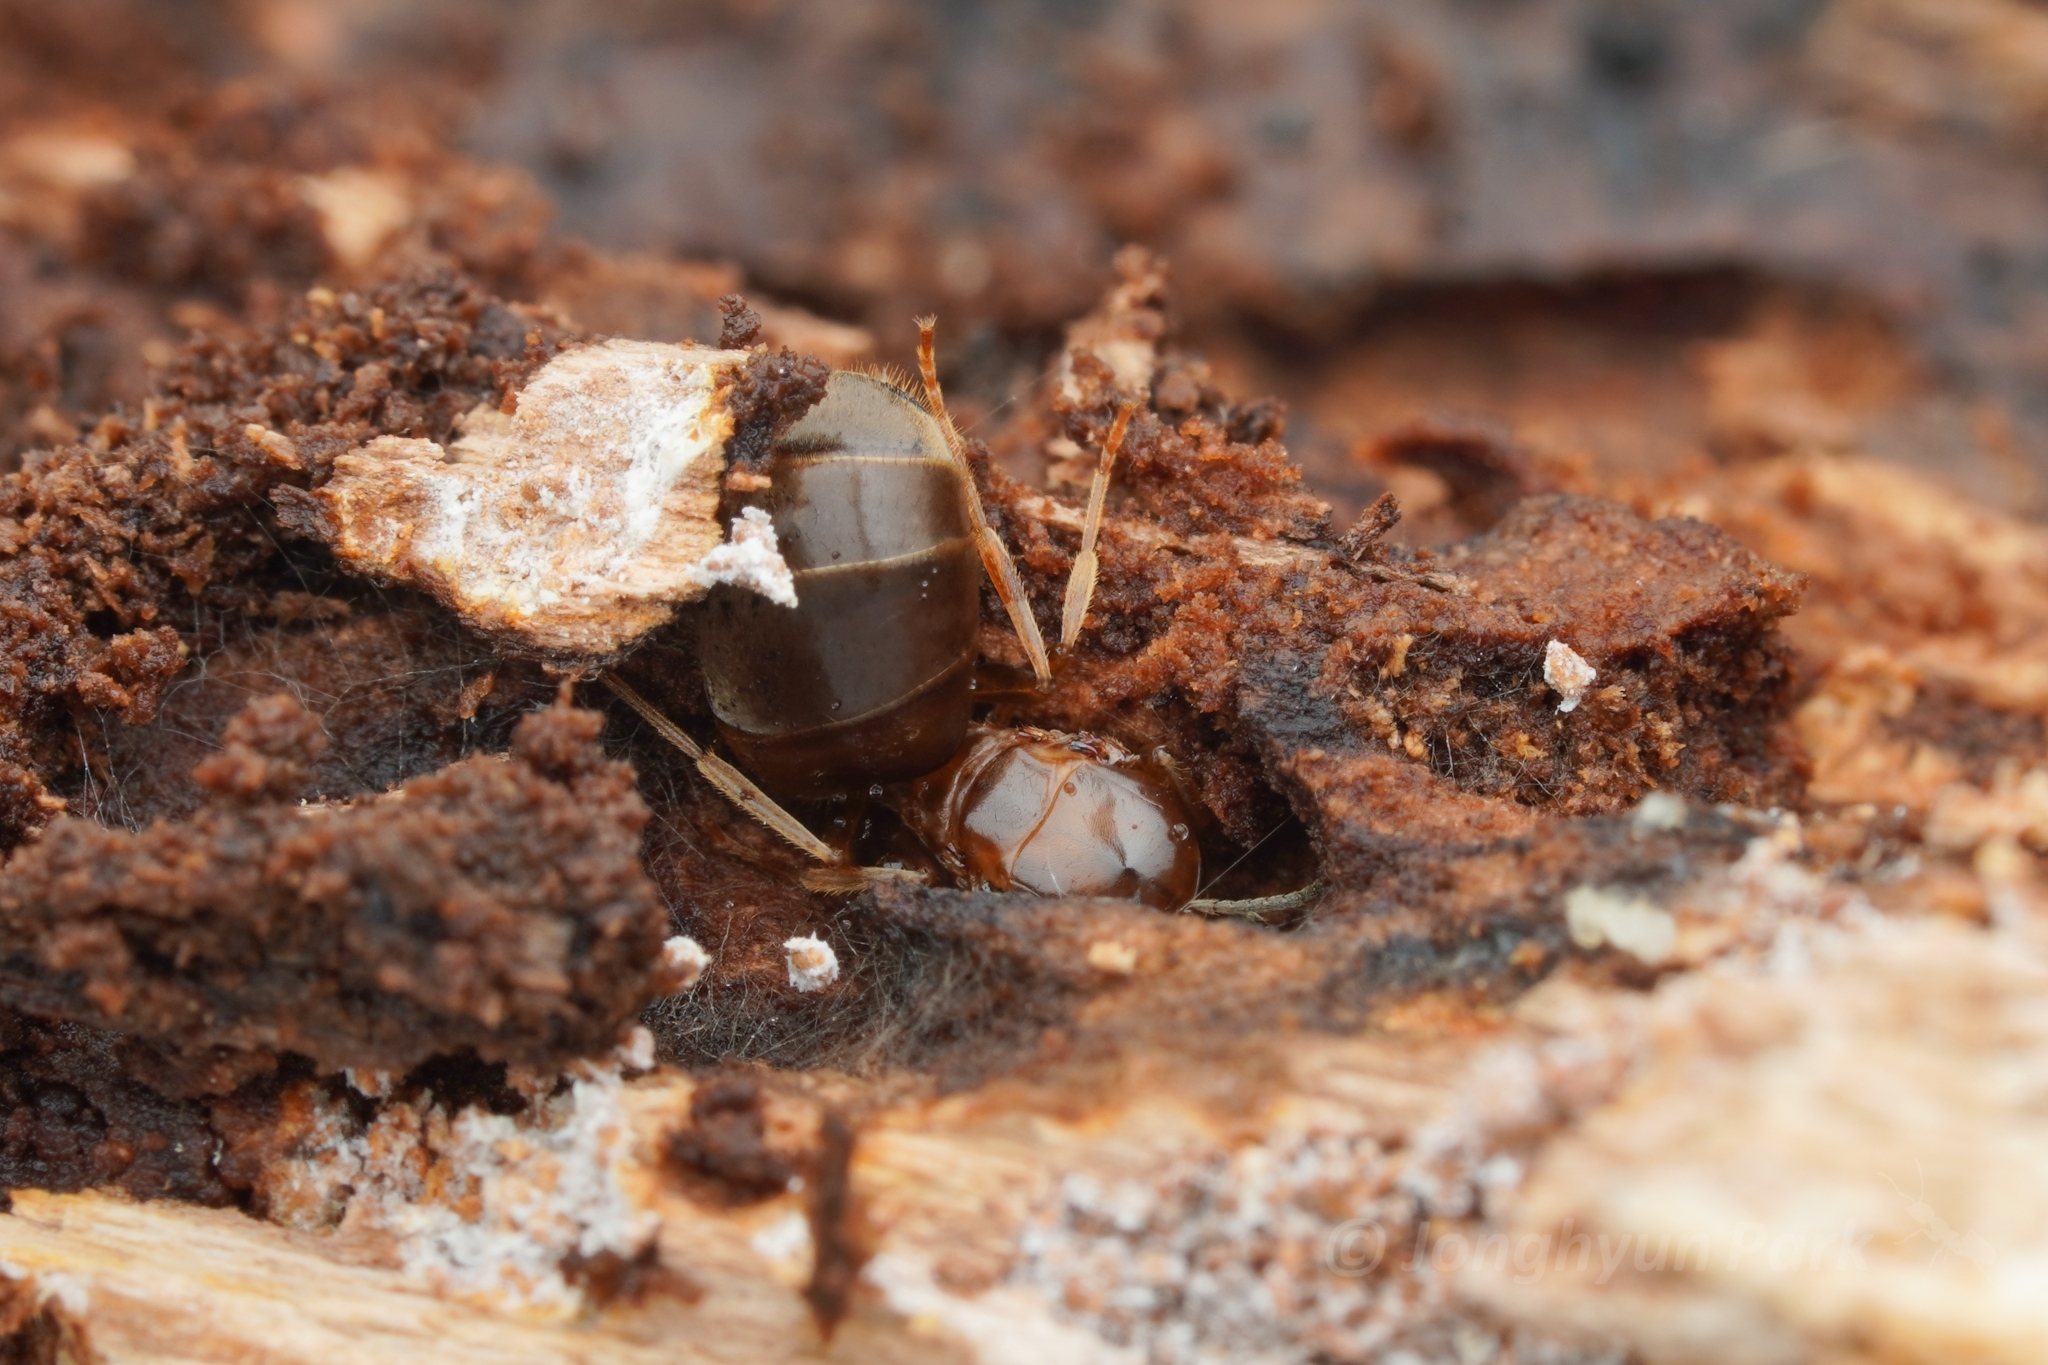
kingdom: Animalia
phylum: Arthropoda
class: Insecta
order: Hymenoptera
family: Formicidae
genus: Lasius
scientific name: Lasius emarginatus
